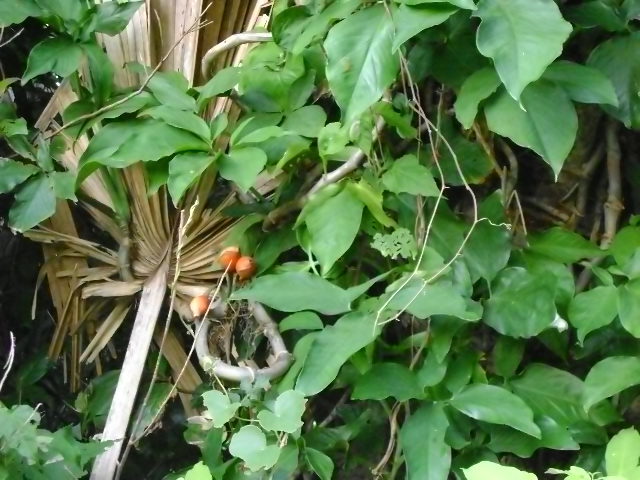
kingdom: Plantae
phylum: Tracheophyta
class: Liliopsida
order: Alismatales
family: Araceae
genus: Syngonium
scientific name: Syngonium podophyllum
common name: American evergreen
